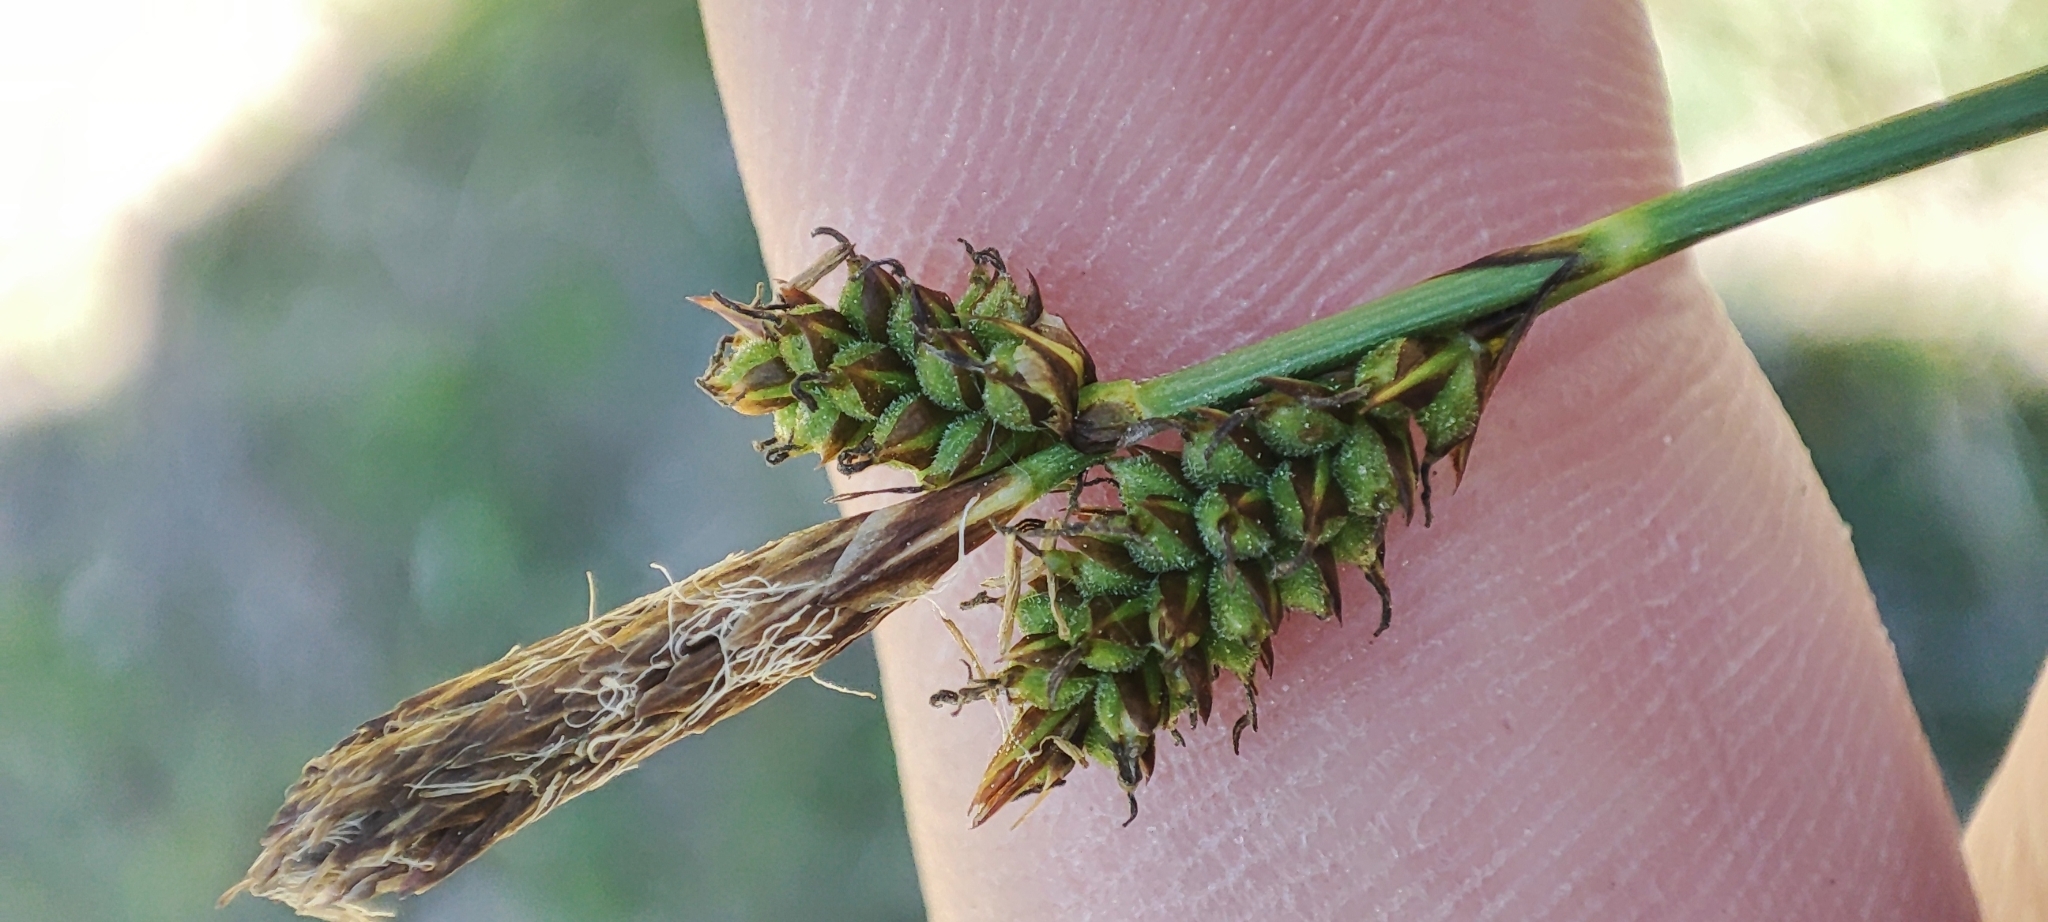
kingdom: Plantae
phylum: Tracheophyta
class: Liliopsida
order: Poales
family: Cyperaceae
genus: Carex
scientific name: Carex caryophyllea
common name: Spring sedge
